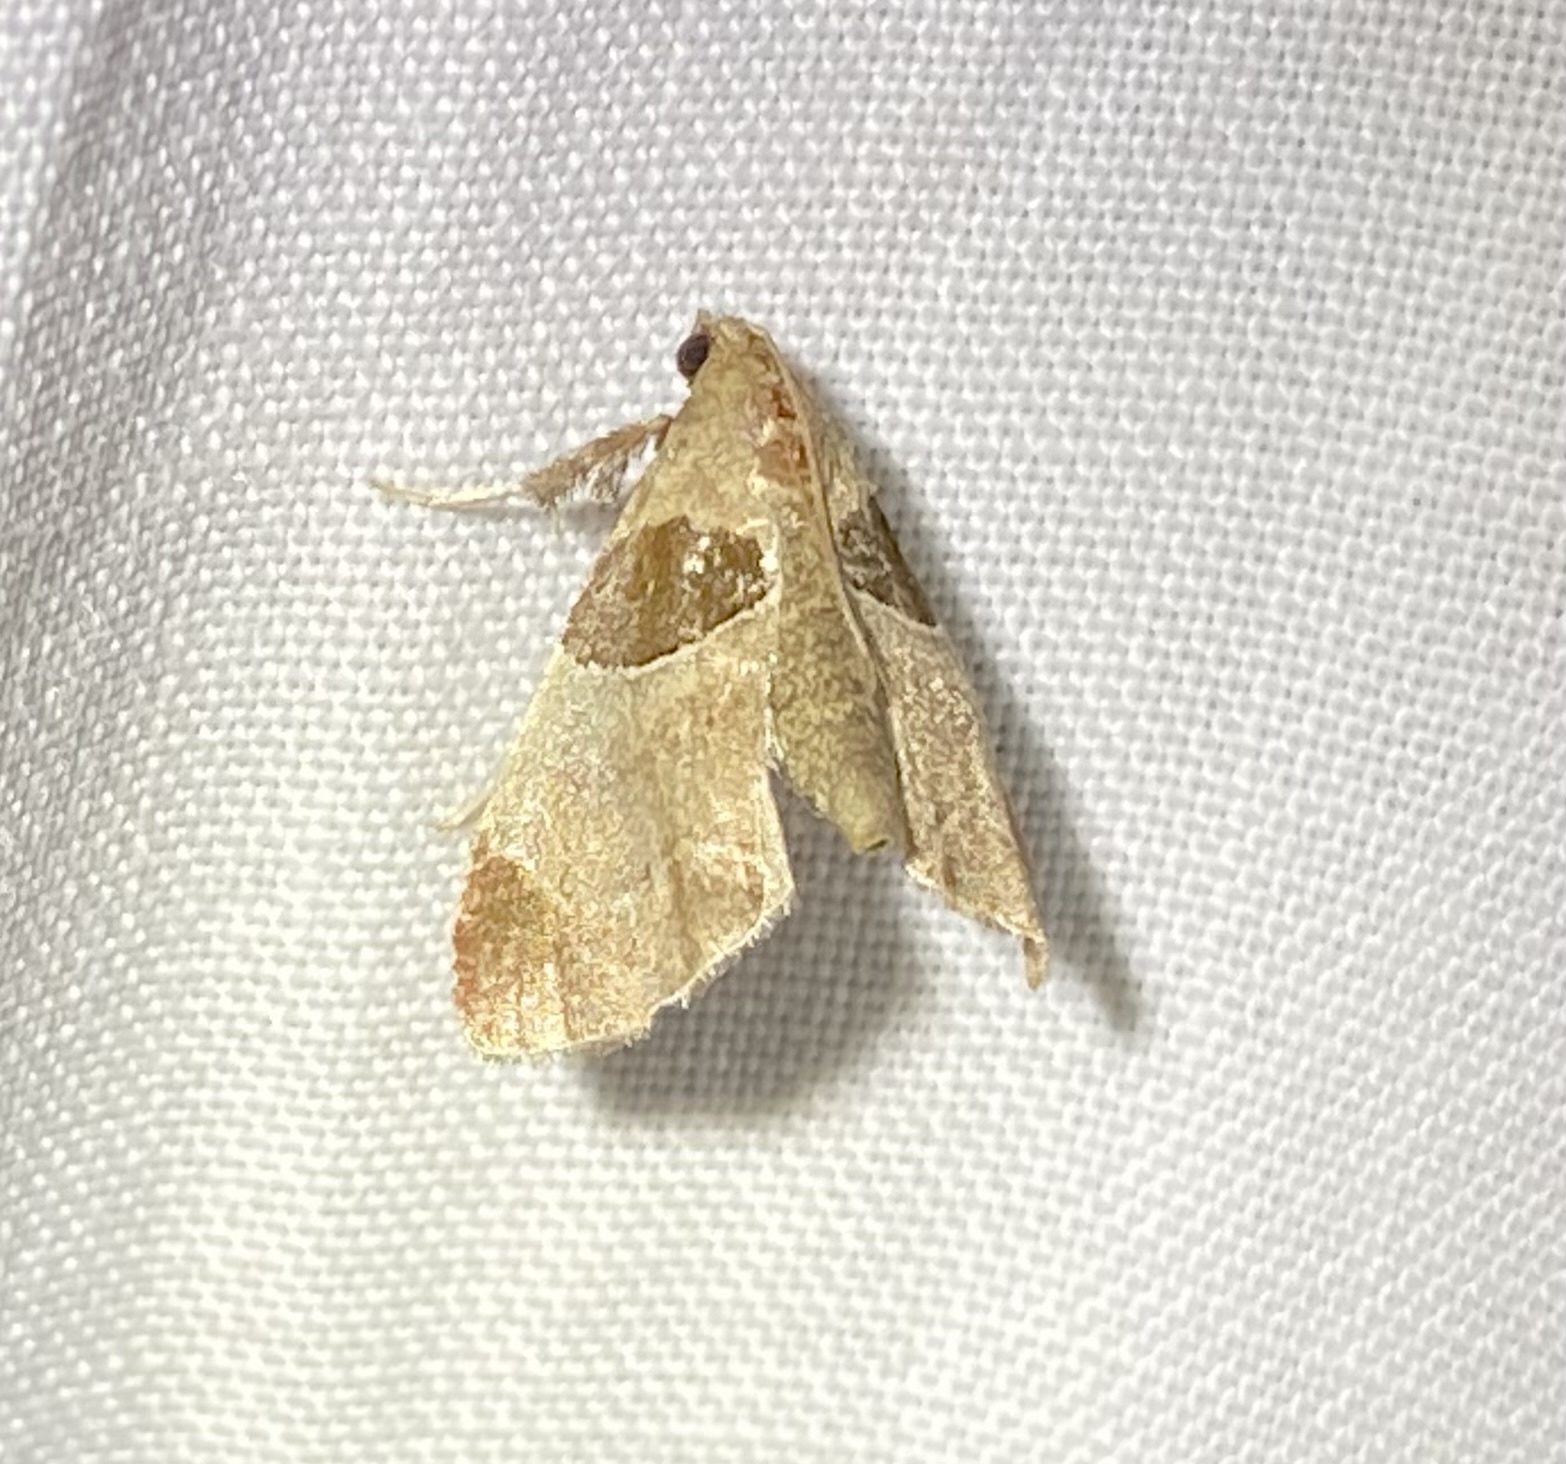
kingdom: Animalia
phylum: Arthropoda
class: Insecta
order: Lepidoptera
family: Pyralidae
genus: Tosale
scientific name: Tosale oviplagalis
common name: Dimorphic tosale moth
